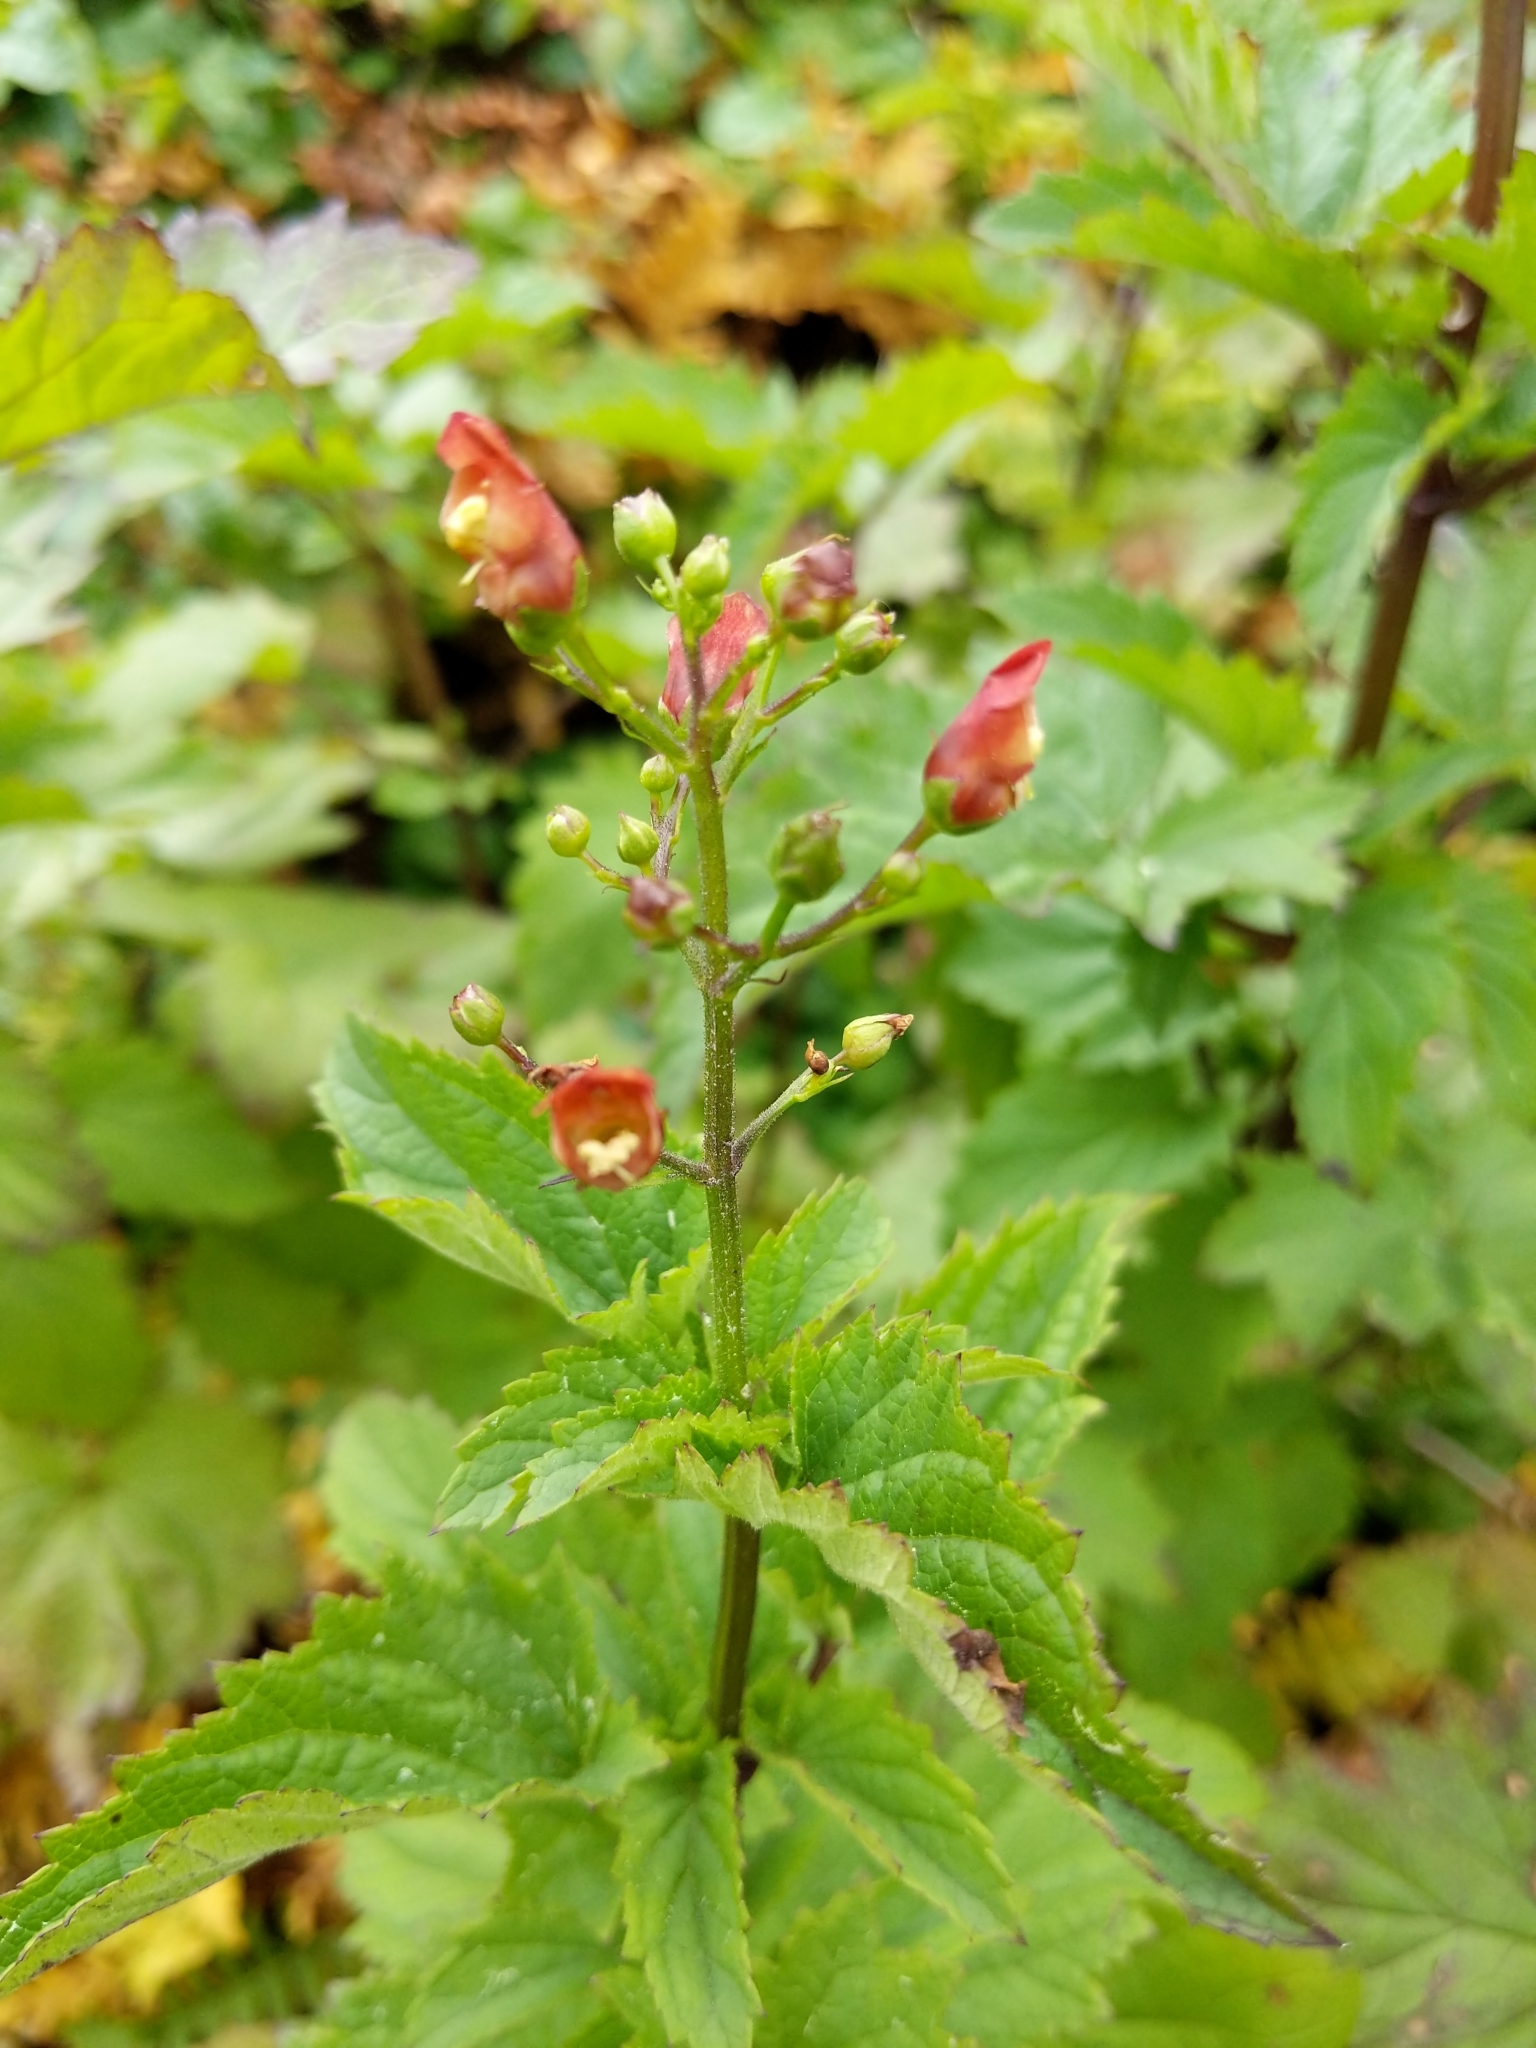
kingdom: Plantae
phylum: Tracheophyta
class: Magnoliopsida
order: Lamiales
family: Scrophulariaceae
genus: Scrophularia
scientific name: Scrophularia californica
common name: California figwort
